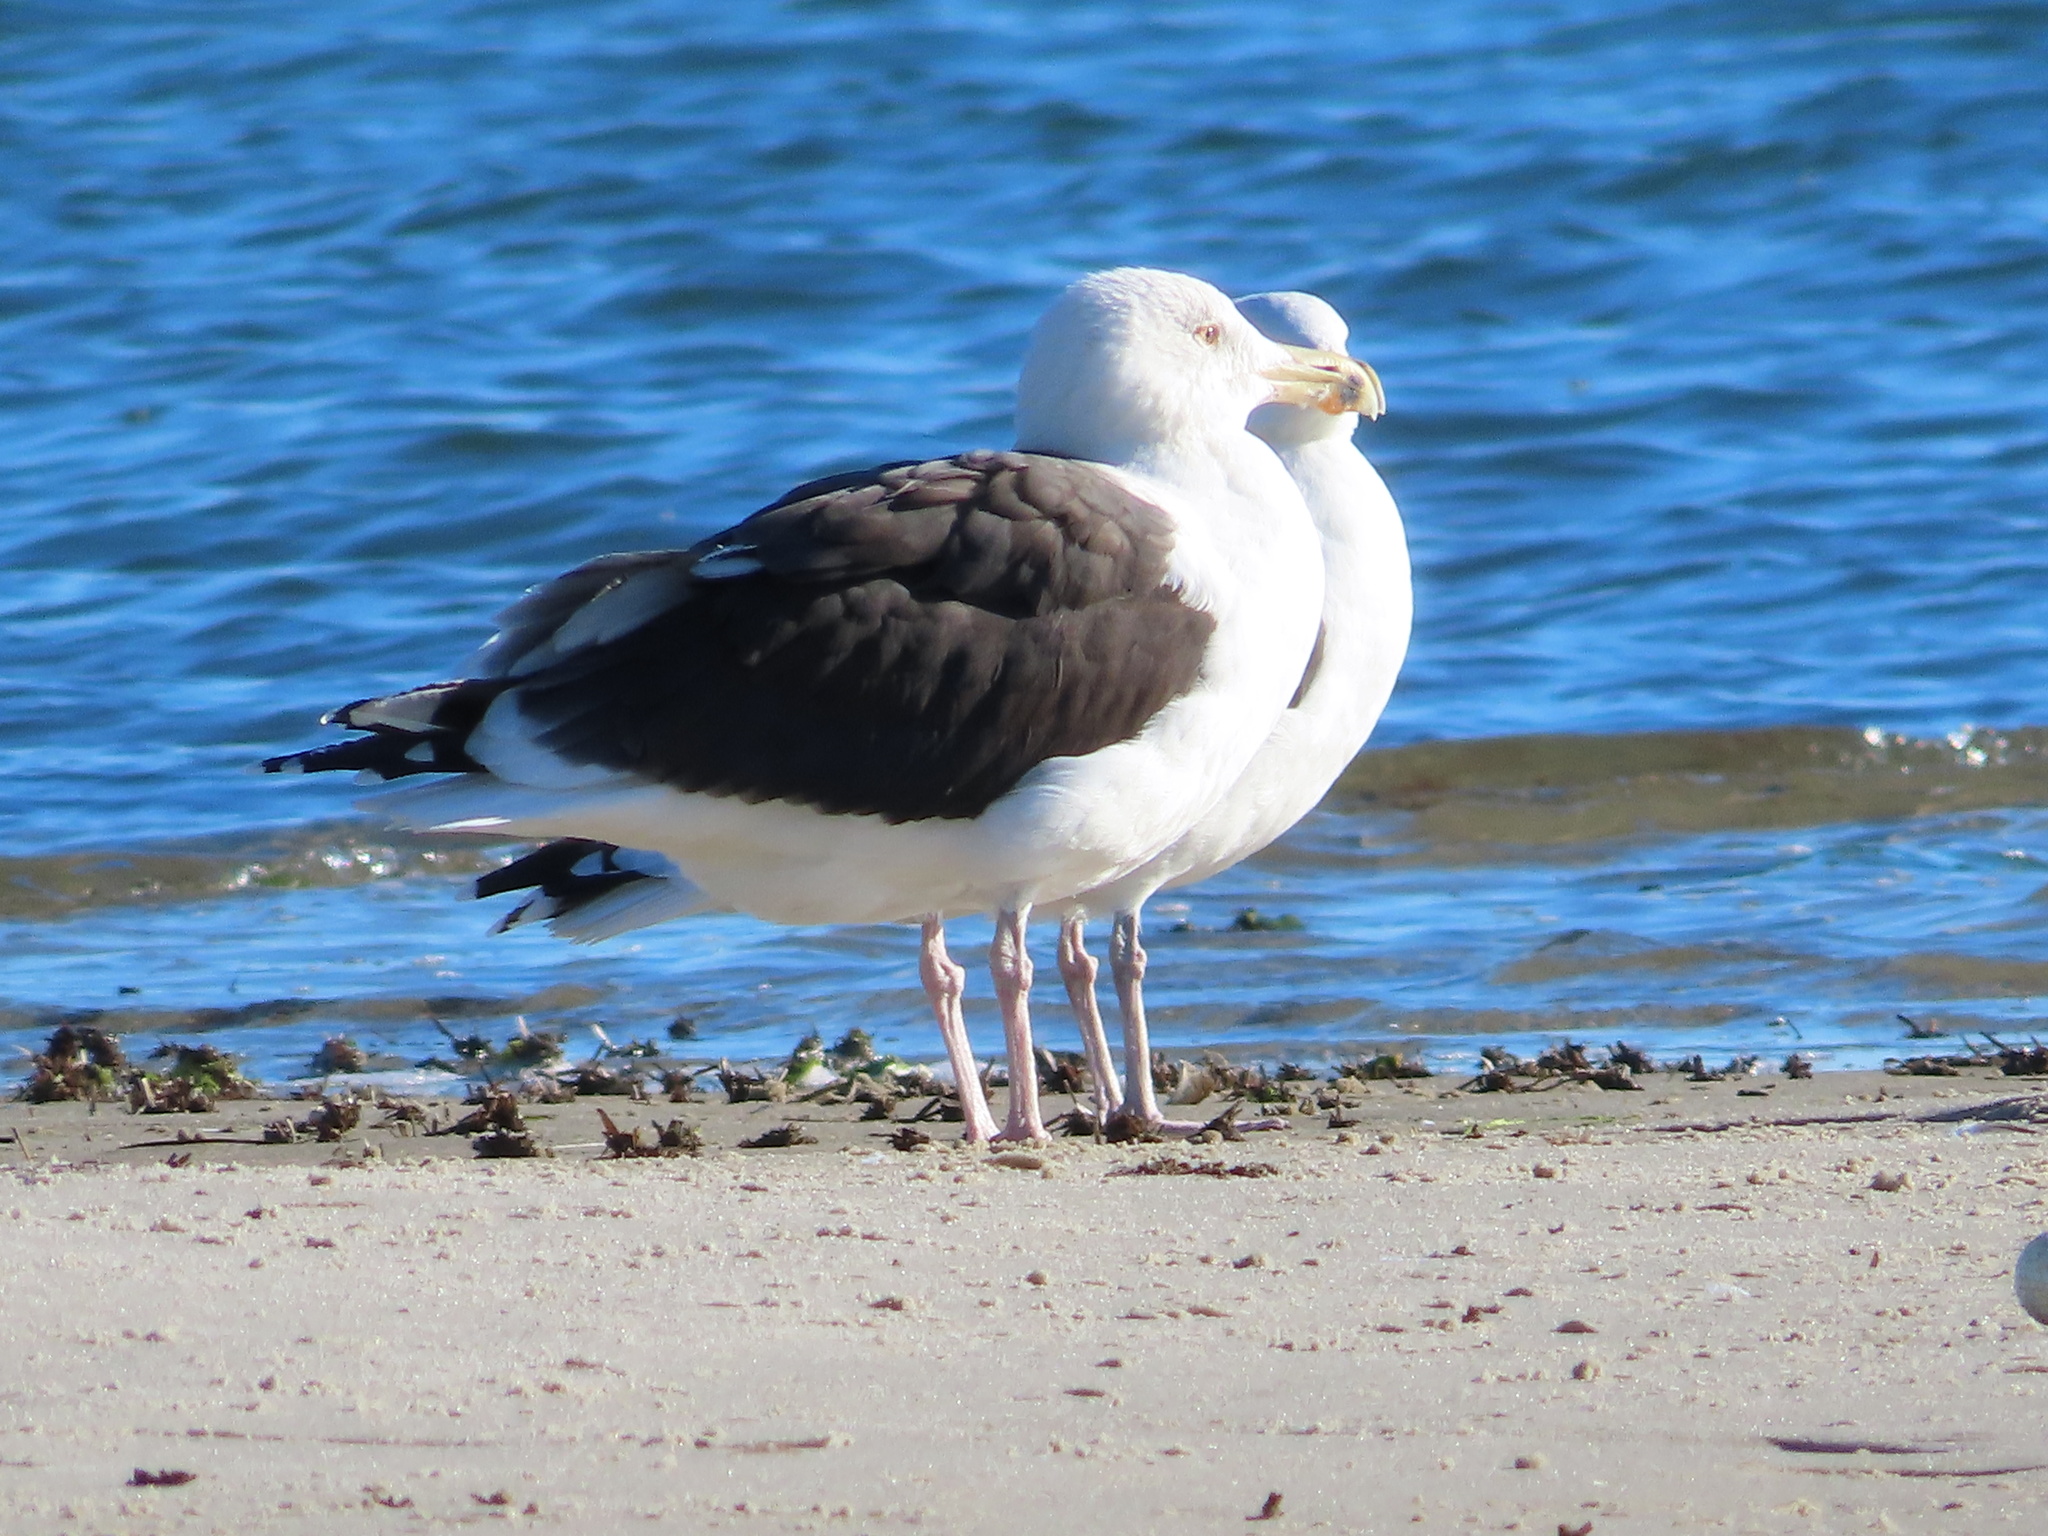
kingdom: Animalia
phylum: Chordata
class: Aves
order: Charadriiformes
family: Laridae
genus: Larus
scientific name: Larus marinus
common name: Great black-backed gull
